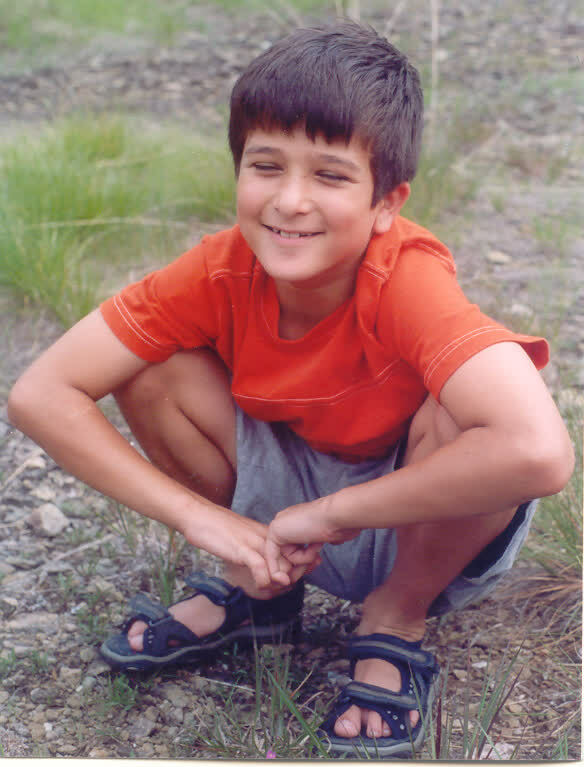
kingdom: Plantae
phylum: Tracheophyta
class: Magnoliopsida
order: Caryophyllales
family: Montiaceae
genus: Phemeranthus
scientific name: Phemeranthus teretifolius
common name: Quill fameflower
